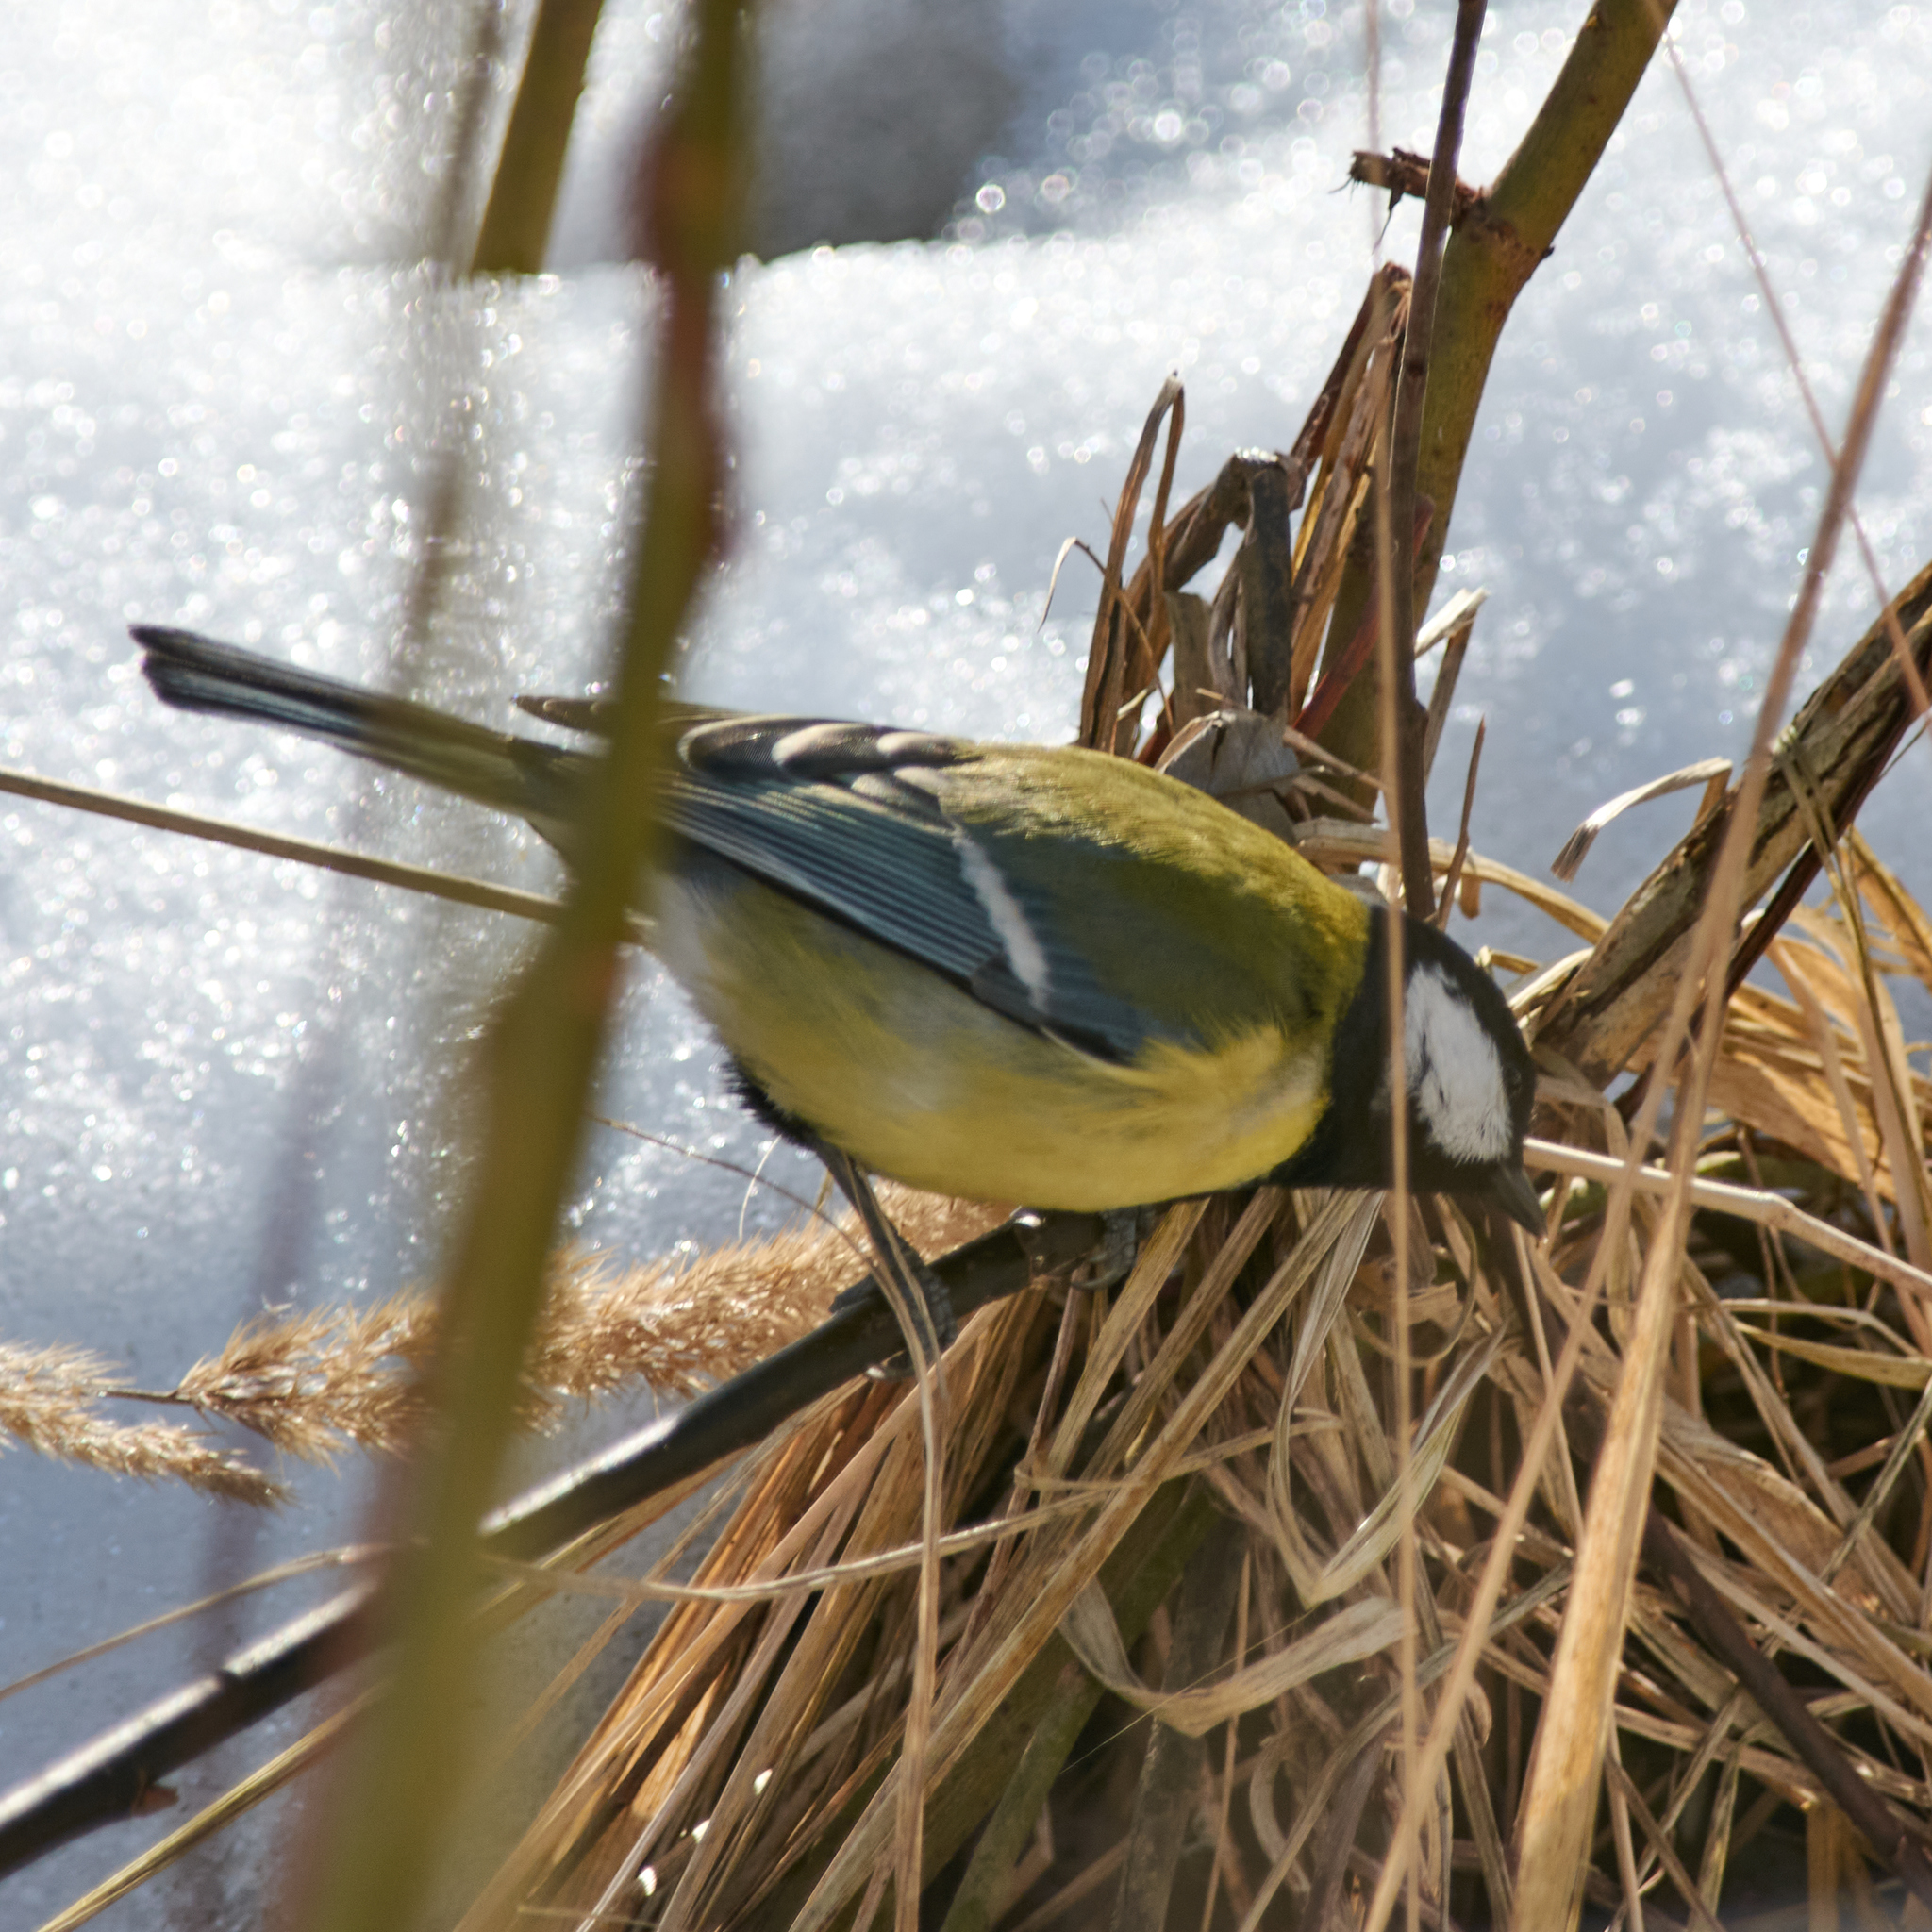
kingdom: Animalia
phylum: Chordata
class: Aves
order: Passeriformes
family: Paridae
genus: Parus
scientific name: Parus major
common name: Great tit
